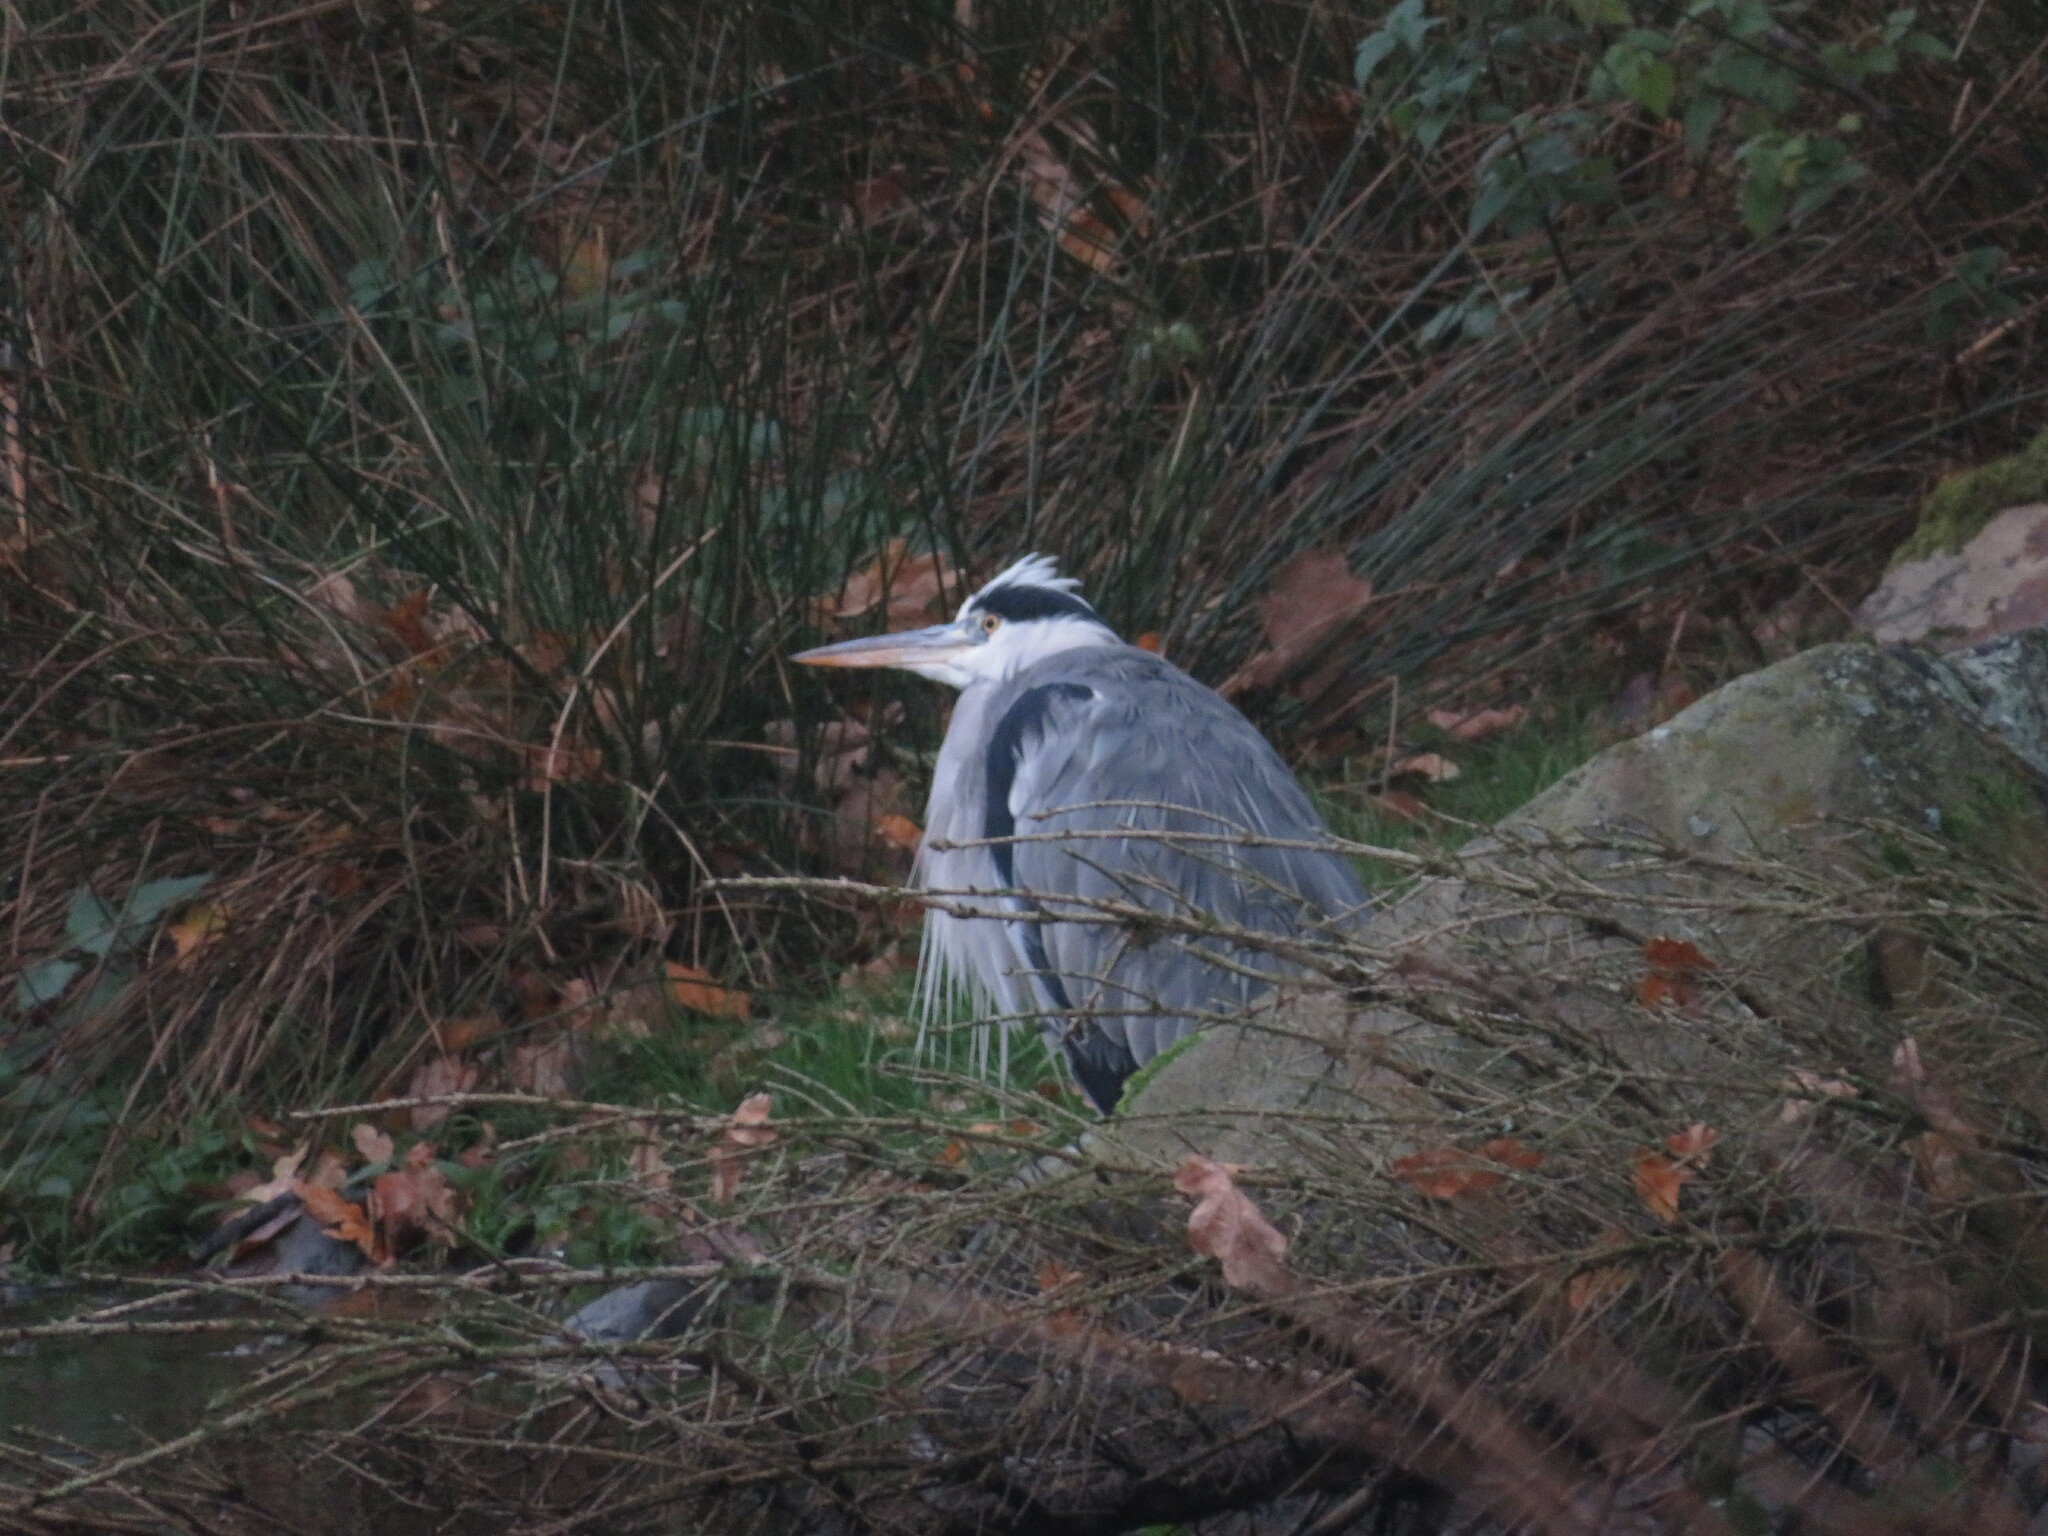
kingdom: Animalia
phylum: Chordata
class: Aves
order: Pelecaniformes
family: Ardeidae
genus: Ardea
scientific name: Ardea cinerea
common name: Grey heron
